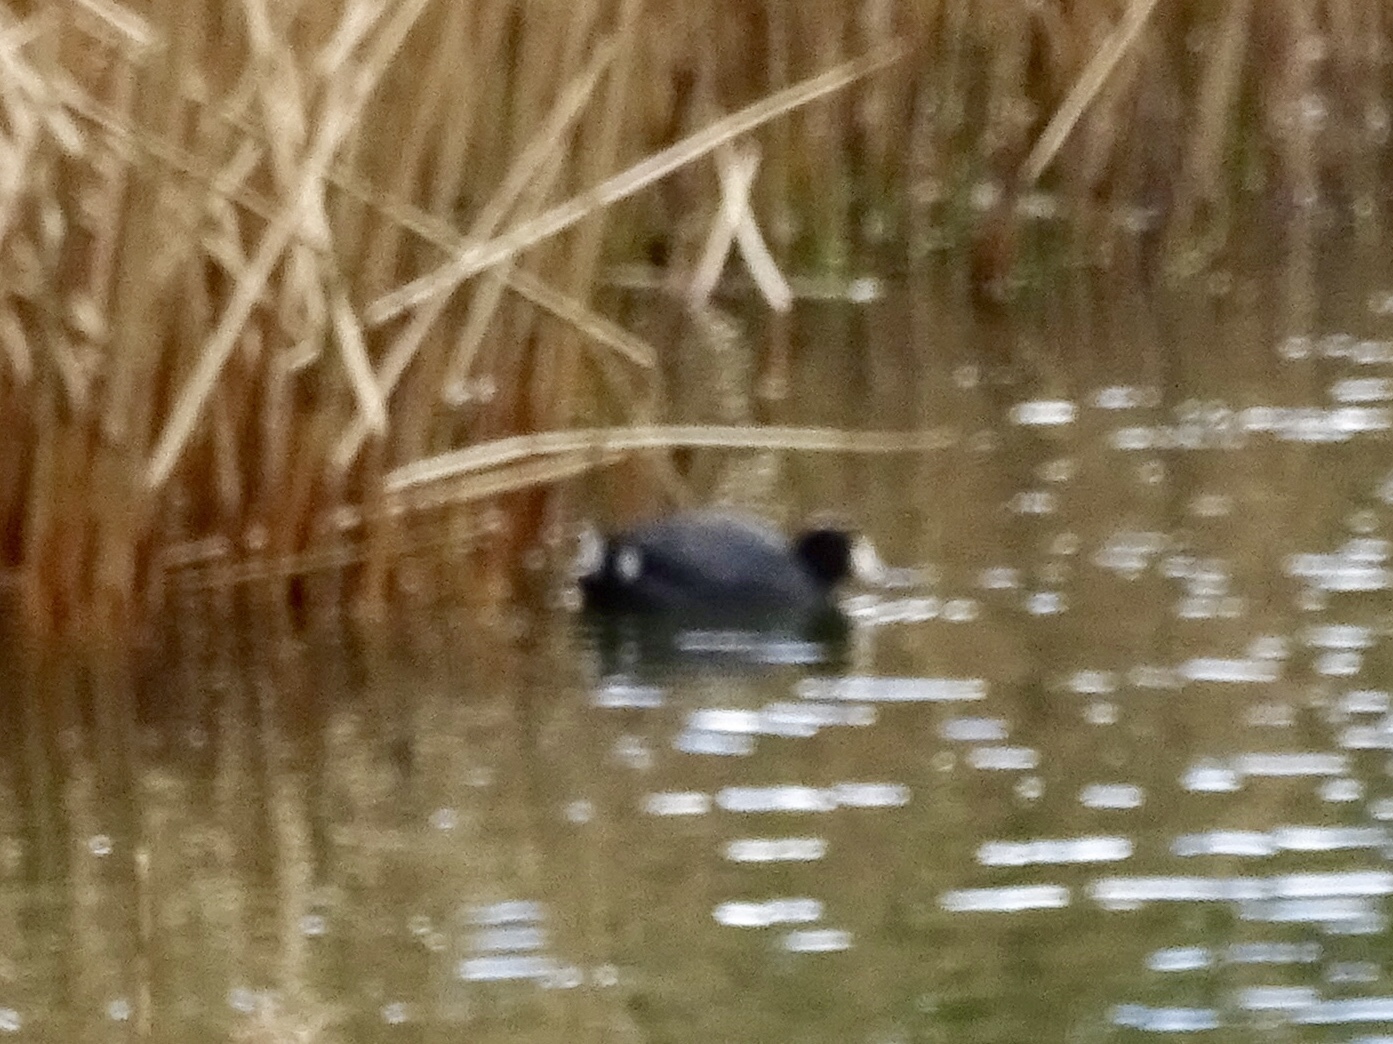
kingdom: Animalia
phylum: Chordata
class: Aves
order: Gruiformes
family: Rallidae
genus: Fulica
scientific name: Fulica americana
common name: American coot
